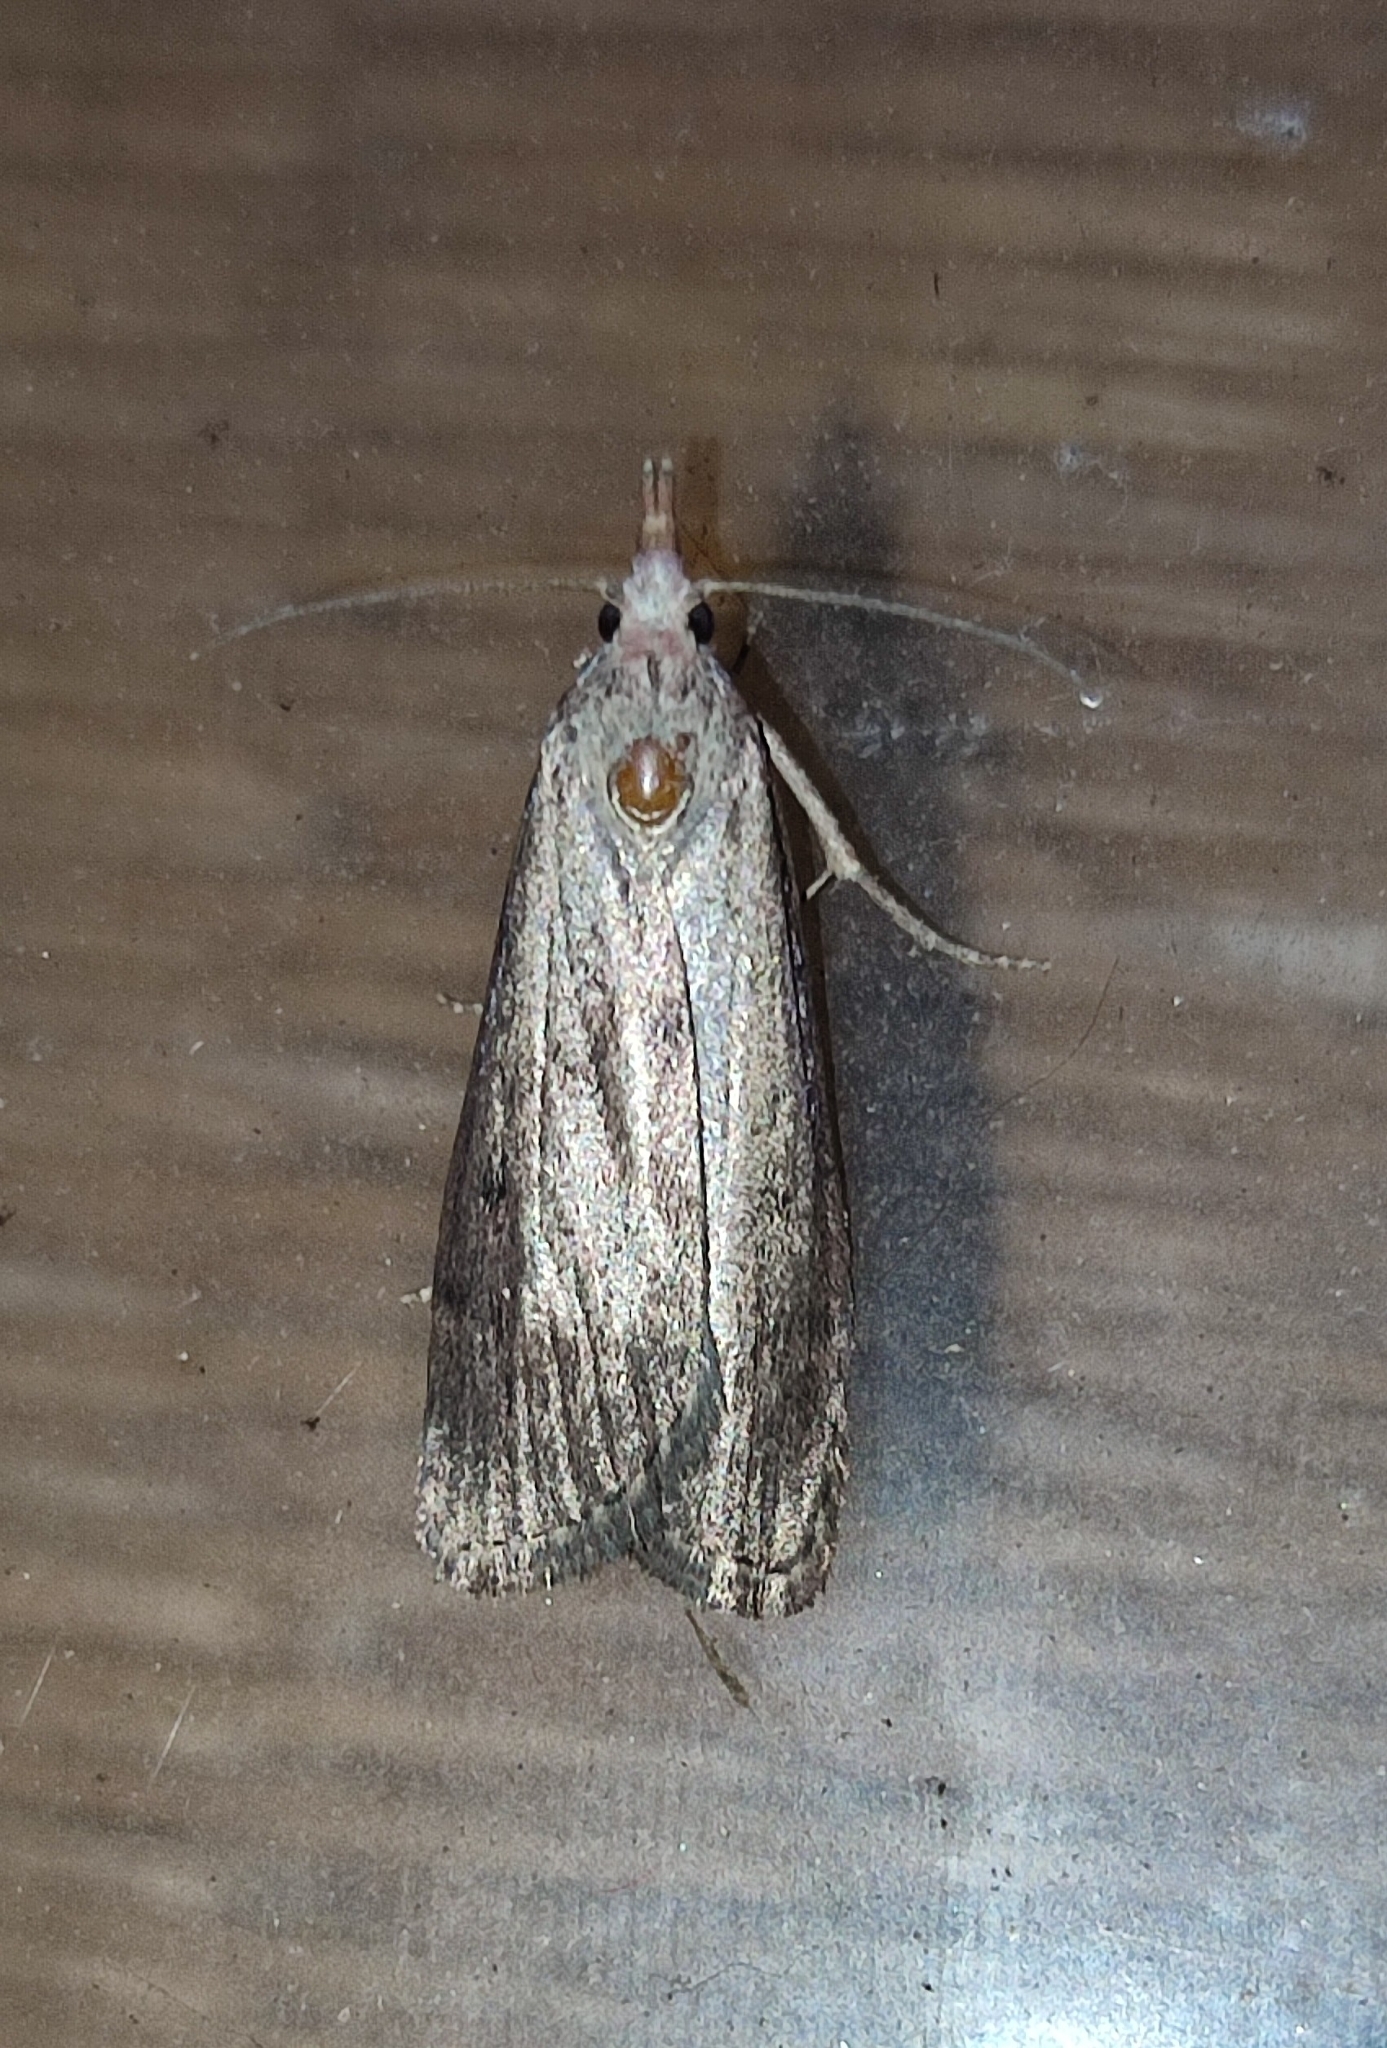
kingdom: Animalia
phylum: Arthropoda
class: Insecta
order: Lepidoptera
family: Pyralidae
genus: Aphomia
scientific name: Aphomia sociella
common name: Bee moth
